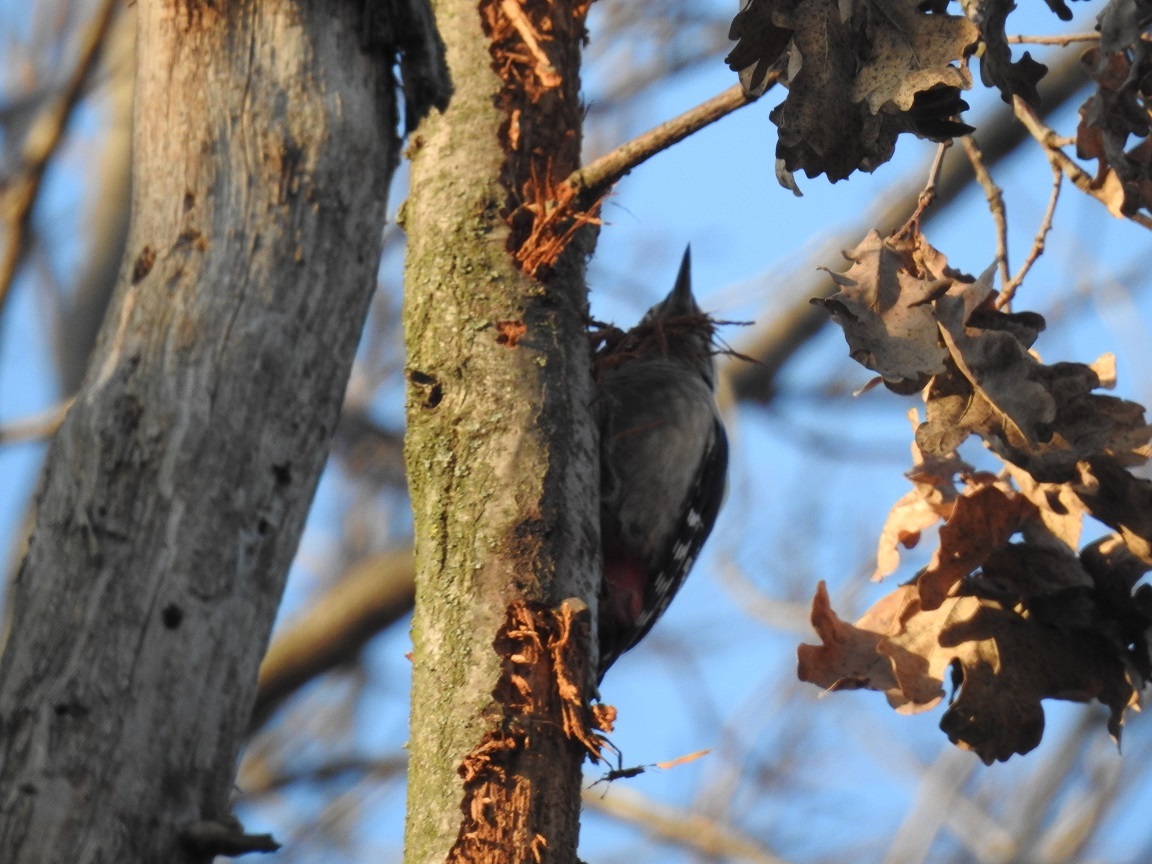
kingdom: Animalia
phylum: Chordata
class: Aves
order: Piciformes
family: Picidae
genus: Dendrocopos
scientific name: Dendrocopos major
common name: Great spotted woodpecker
